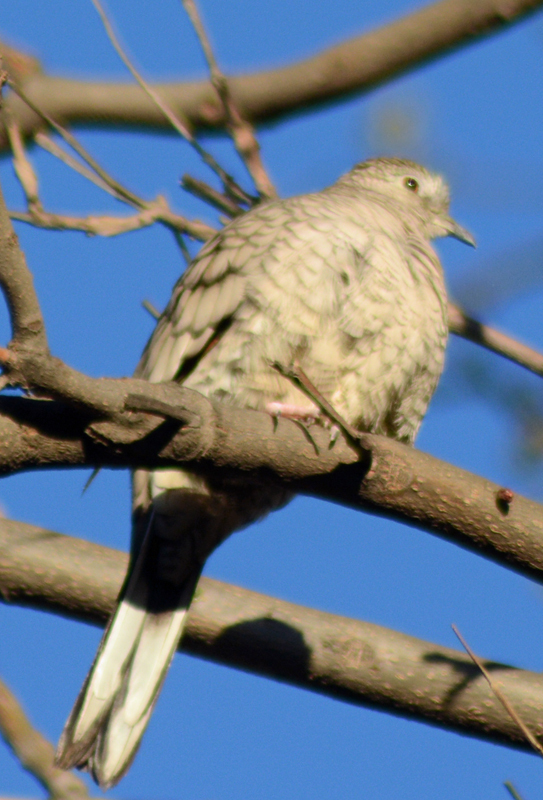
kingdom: Animalia
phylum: Chordata
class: Aves
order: Columbiformes
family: Columbidae
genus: Columbina
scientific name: Columbina inca
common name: Inca dove
